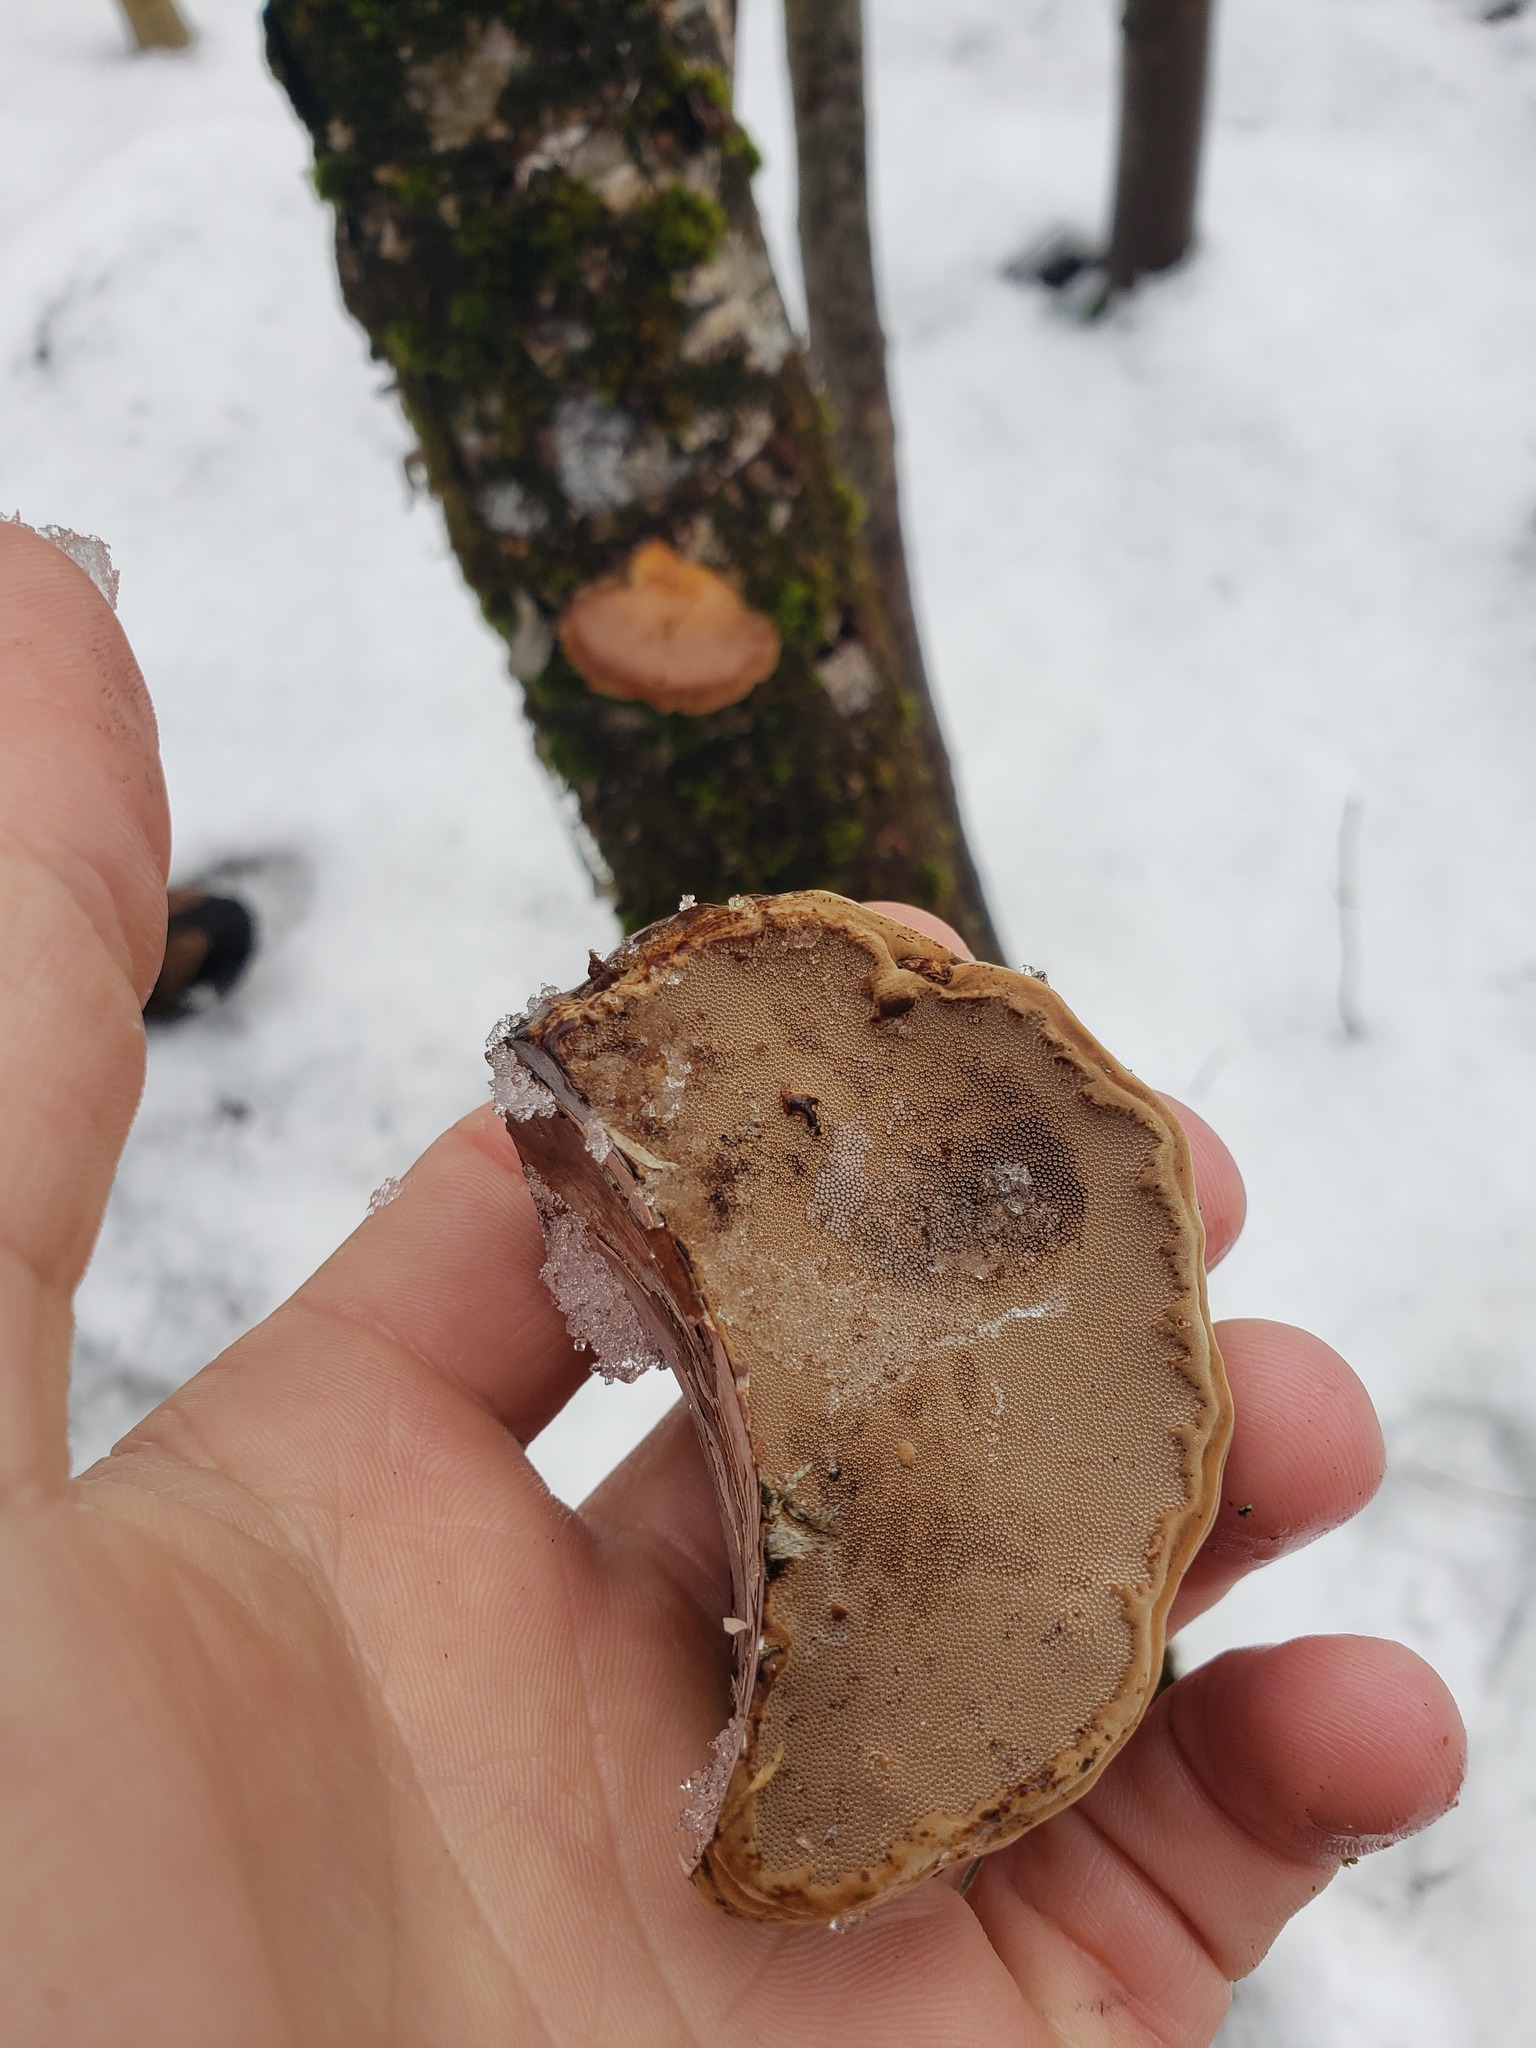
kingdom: Fungi
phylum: Basidiomycota
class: Agaricomycetes
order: Polyporales
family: Polyporaceae
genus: Fomes
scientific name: Fomes fomentarius
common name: Hoof fungus
